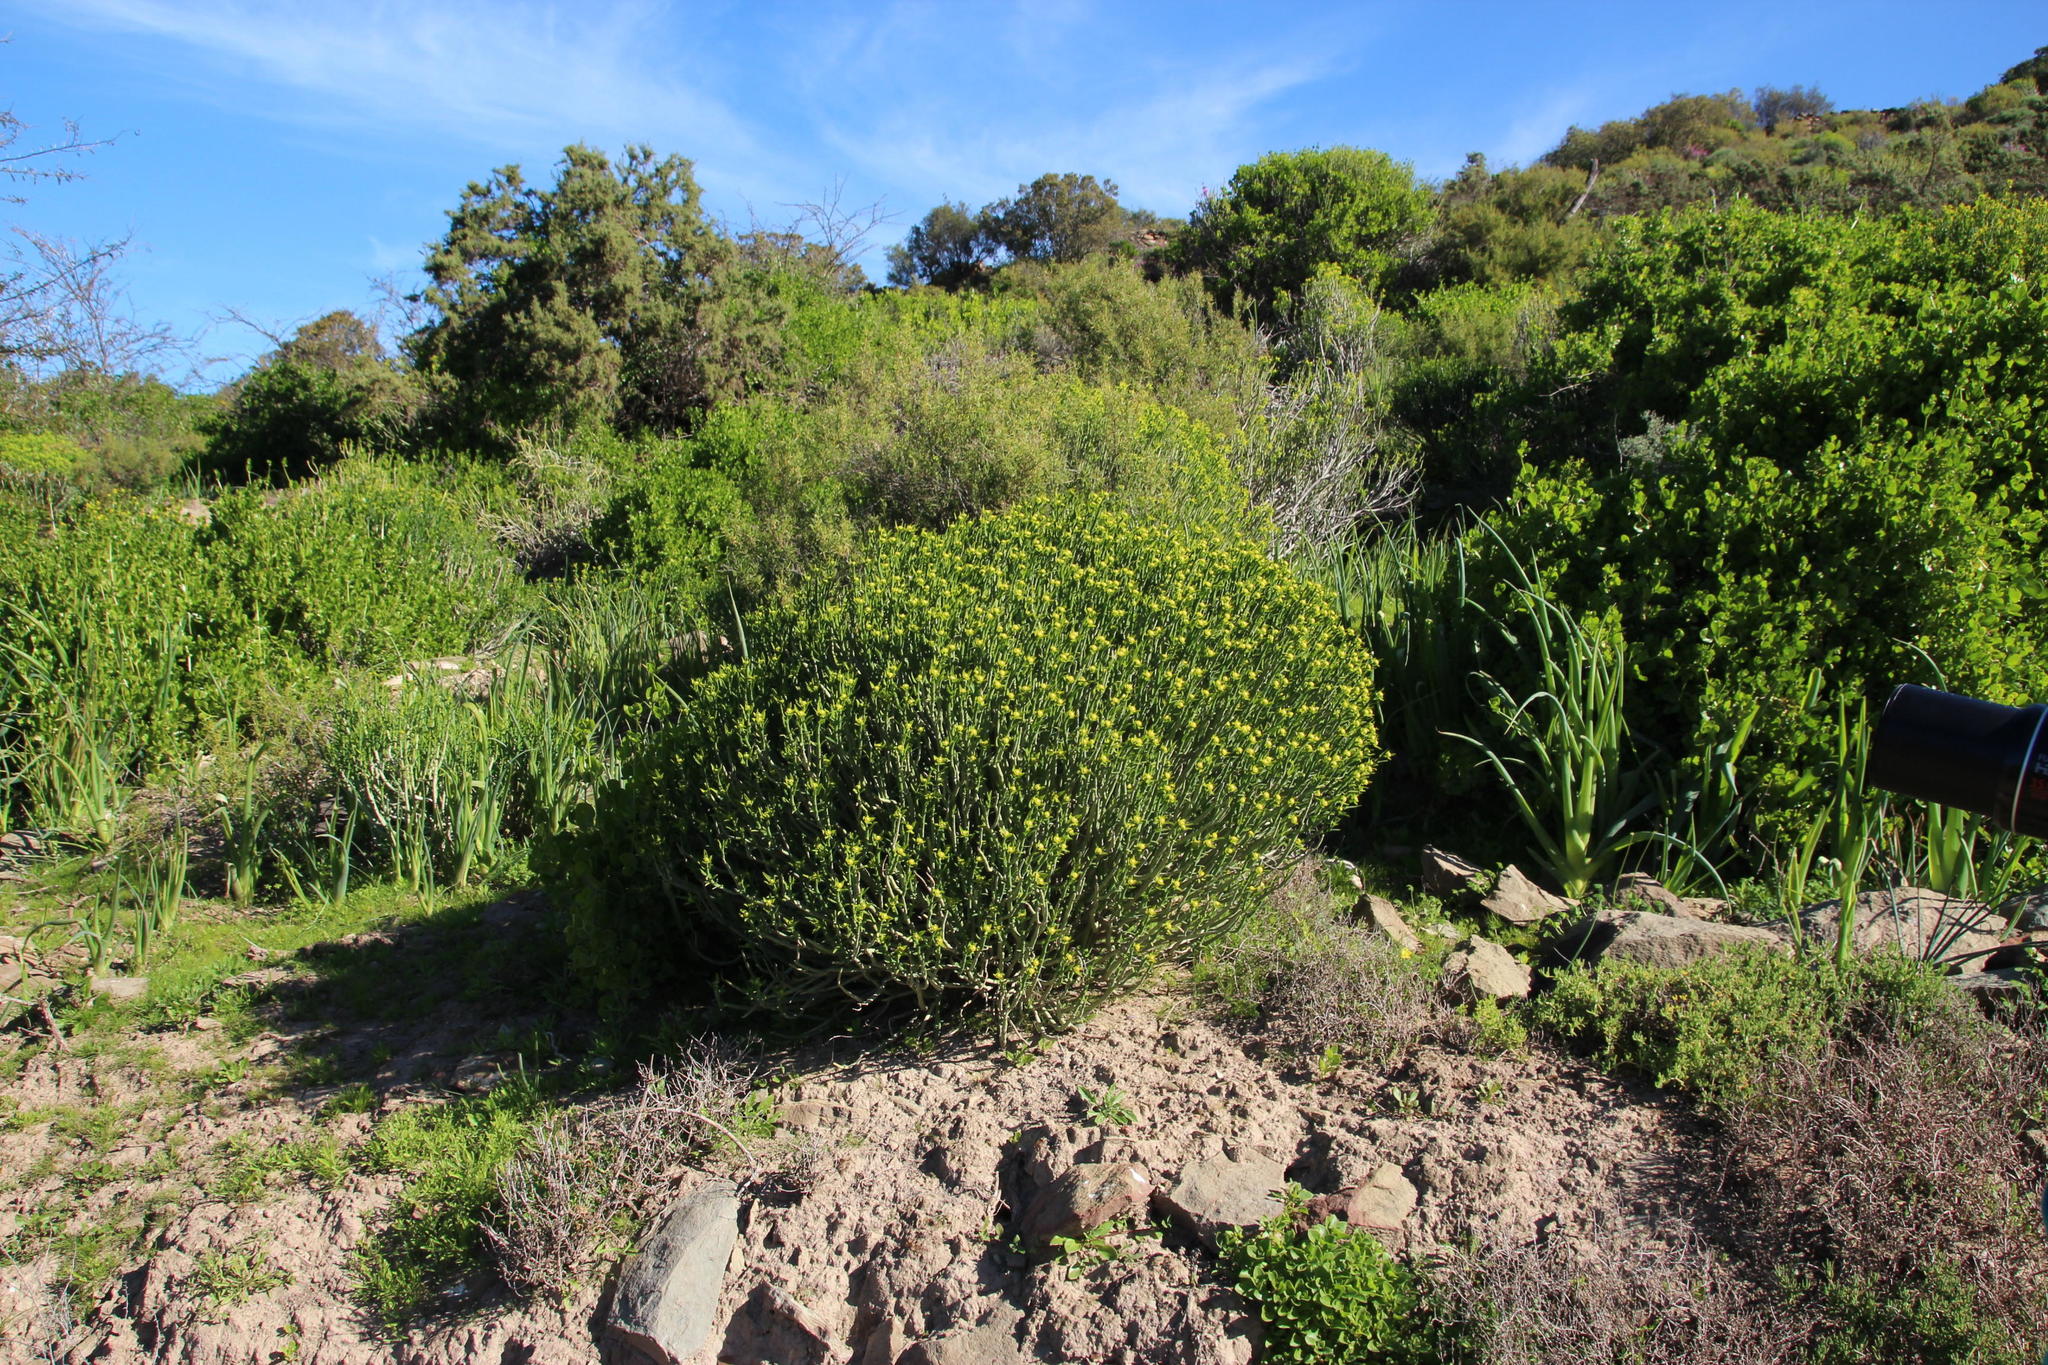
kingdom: Plantae
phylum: Tracheophyta
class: Magnoliopsida
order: Malpighiales
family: Euphorbiaceae
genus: Euphorbia
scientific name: Euphorbia mauritanica
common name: Jackal's-food
